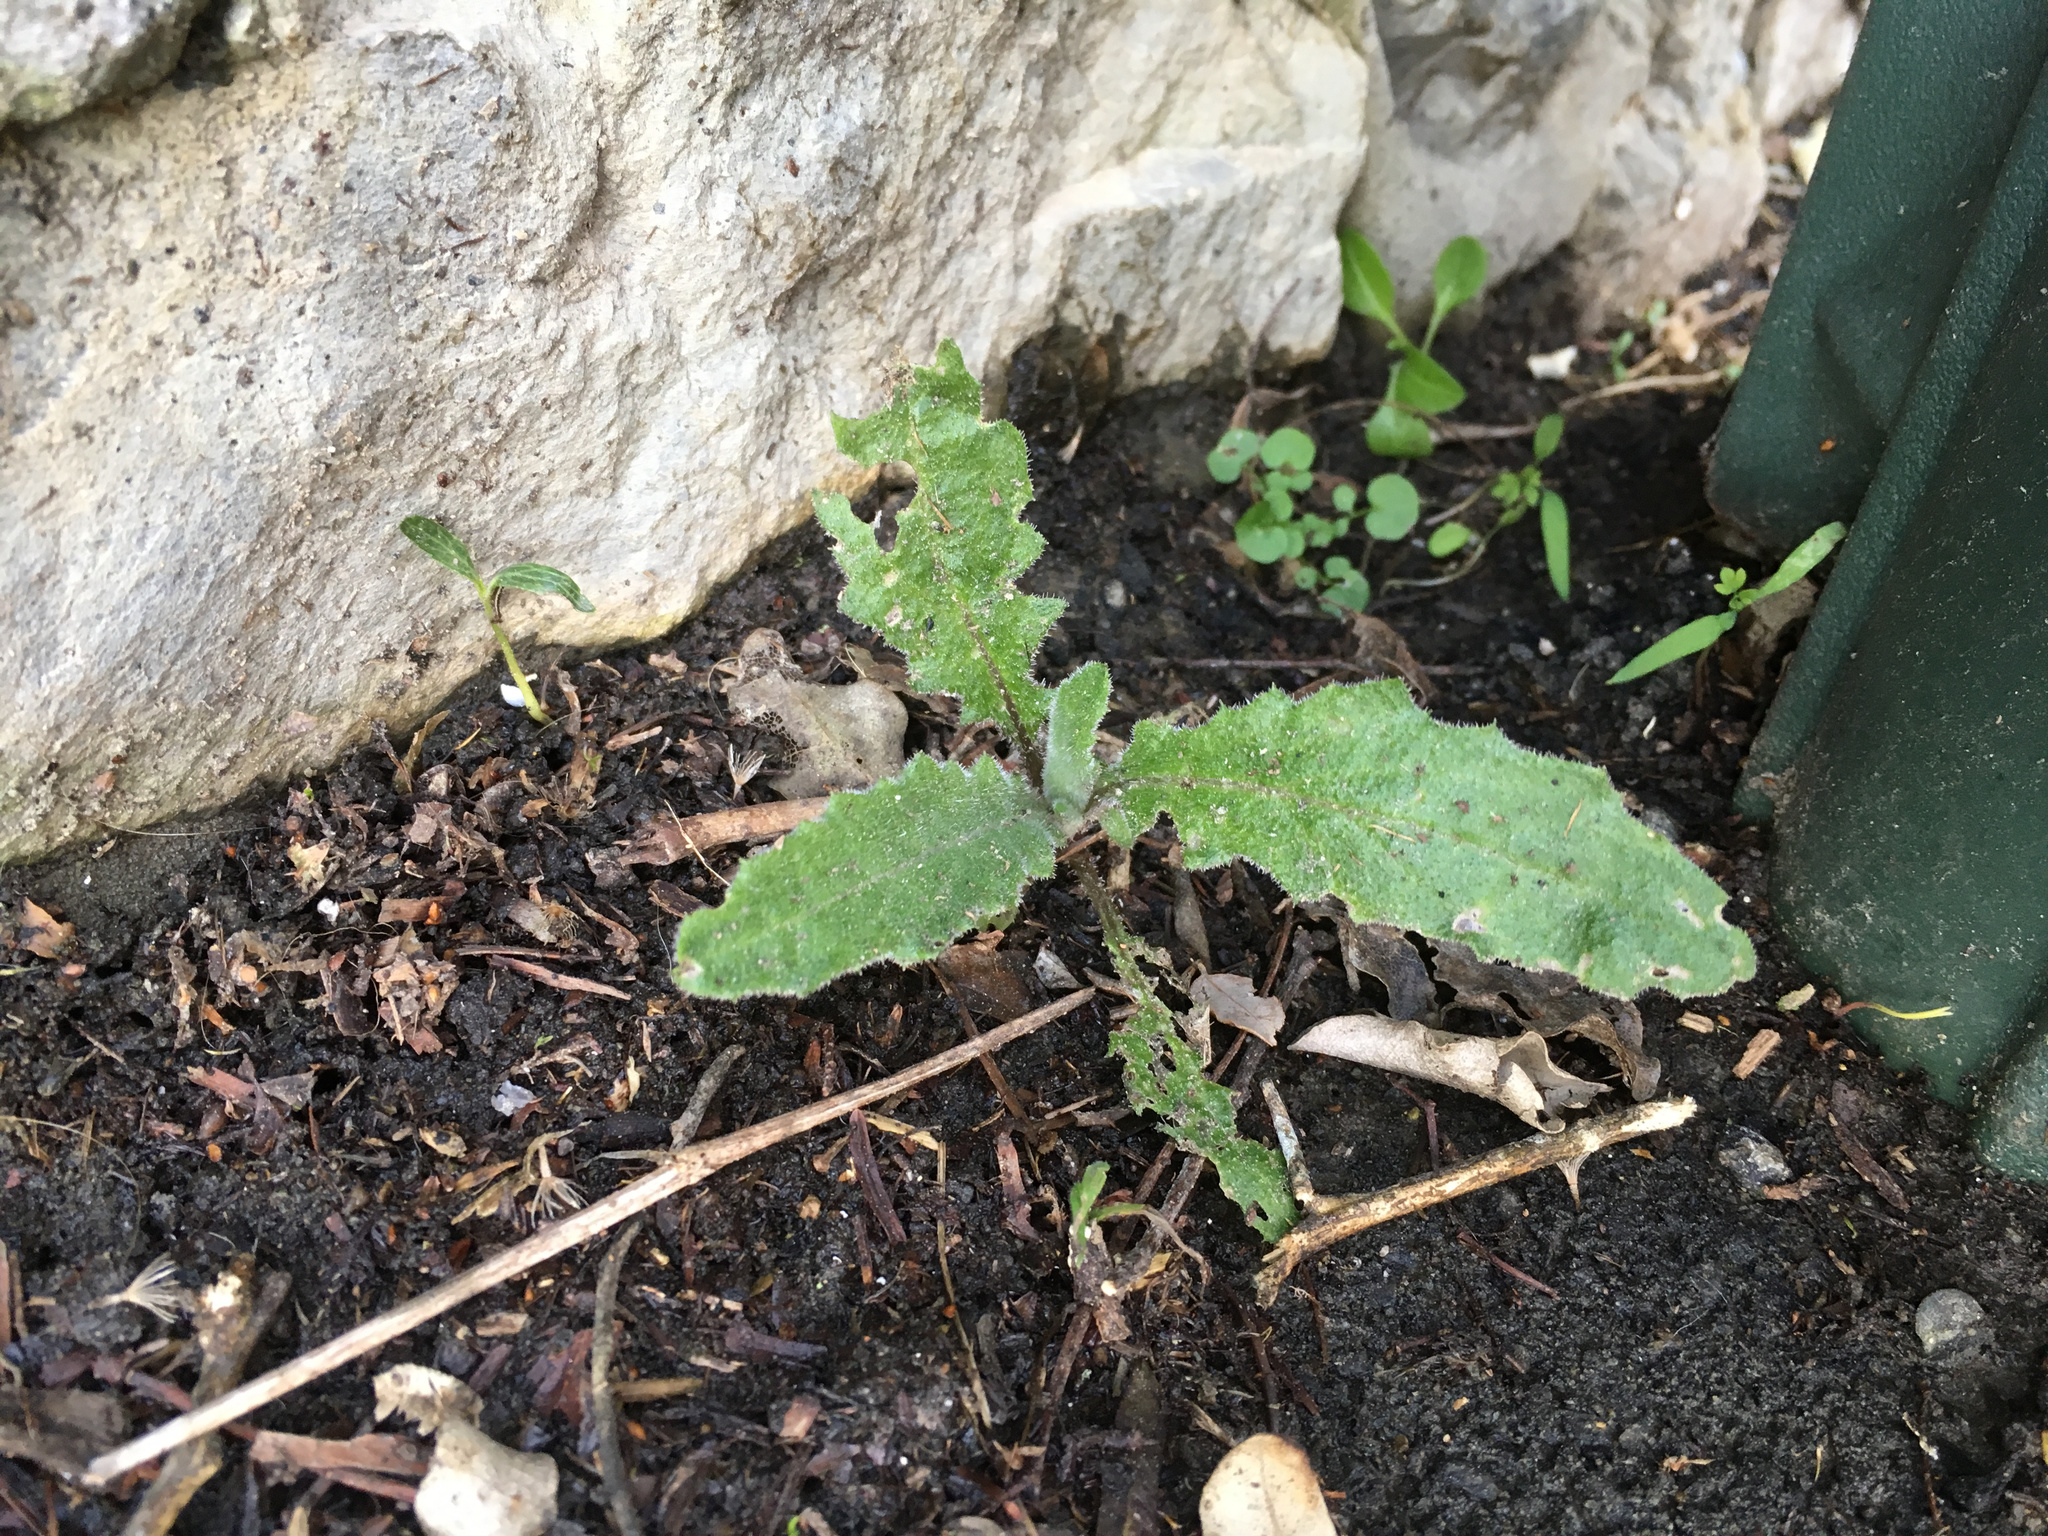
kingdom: Plantae
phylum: Tracheophyta
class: Magnoliopsida
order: Asterales
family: Asteraceae
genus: Senecio
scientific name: Senecio minimus
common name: Toothed fireweed
